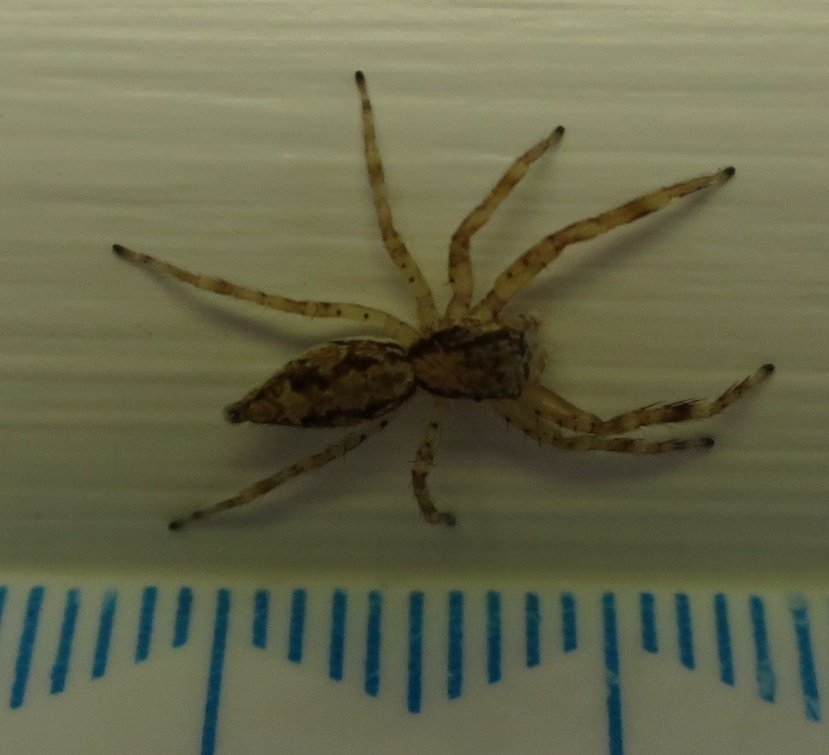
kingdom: Animalia
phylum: Arthropoda
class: Arachnida
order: Araneae
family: Salticidae
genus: Helpis
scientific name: Helpis minitabunda
